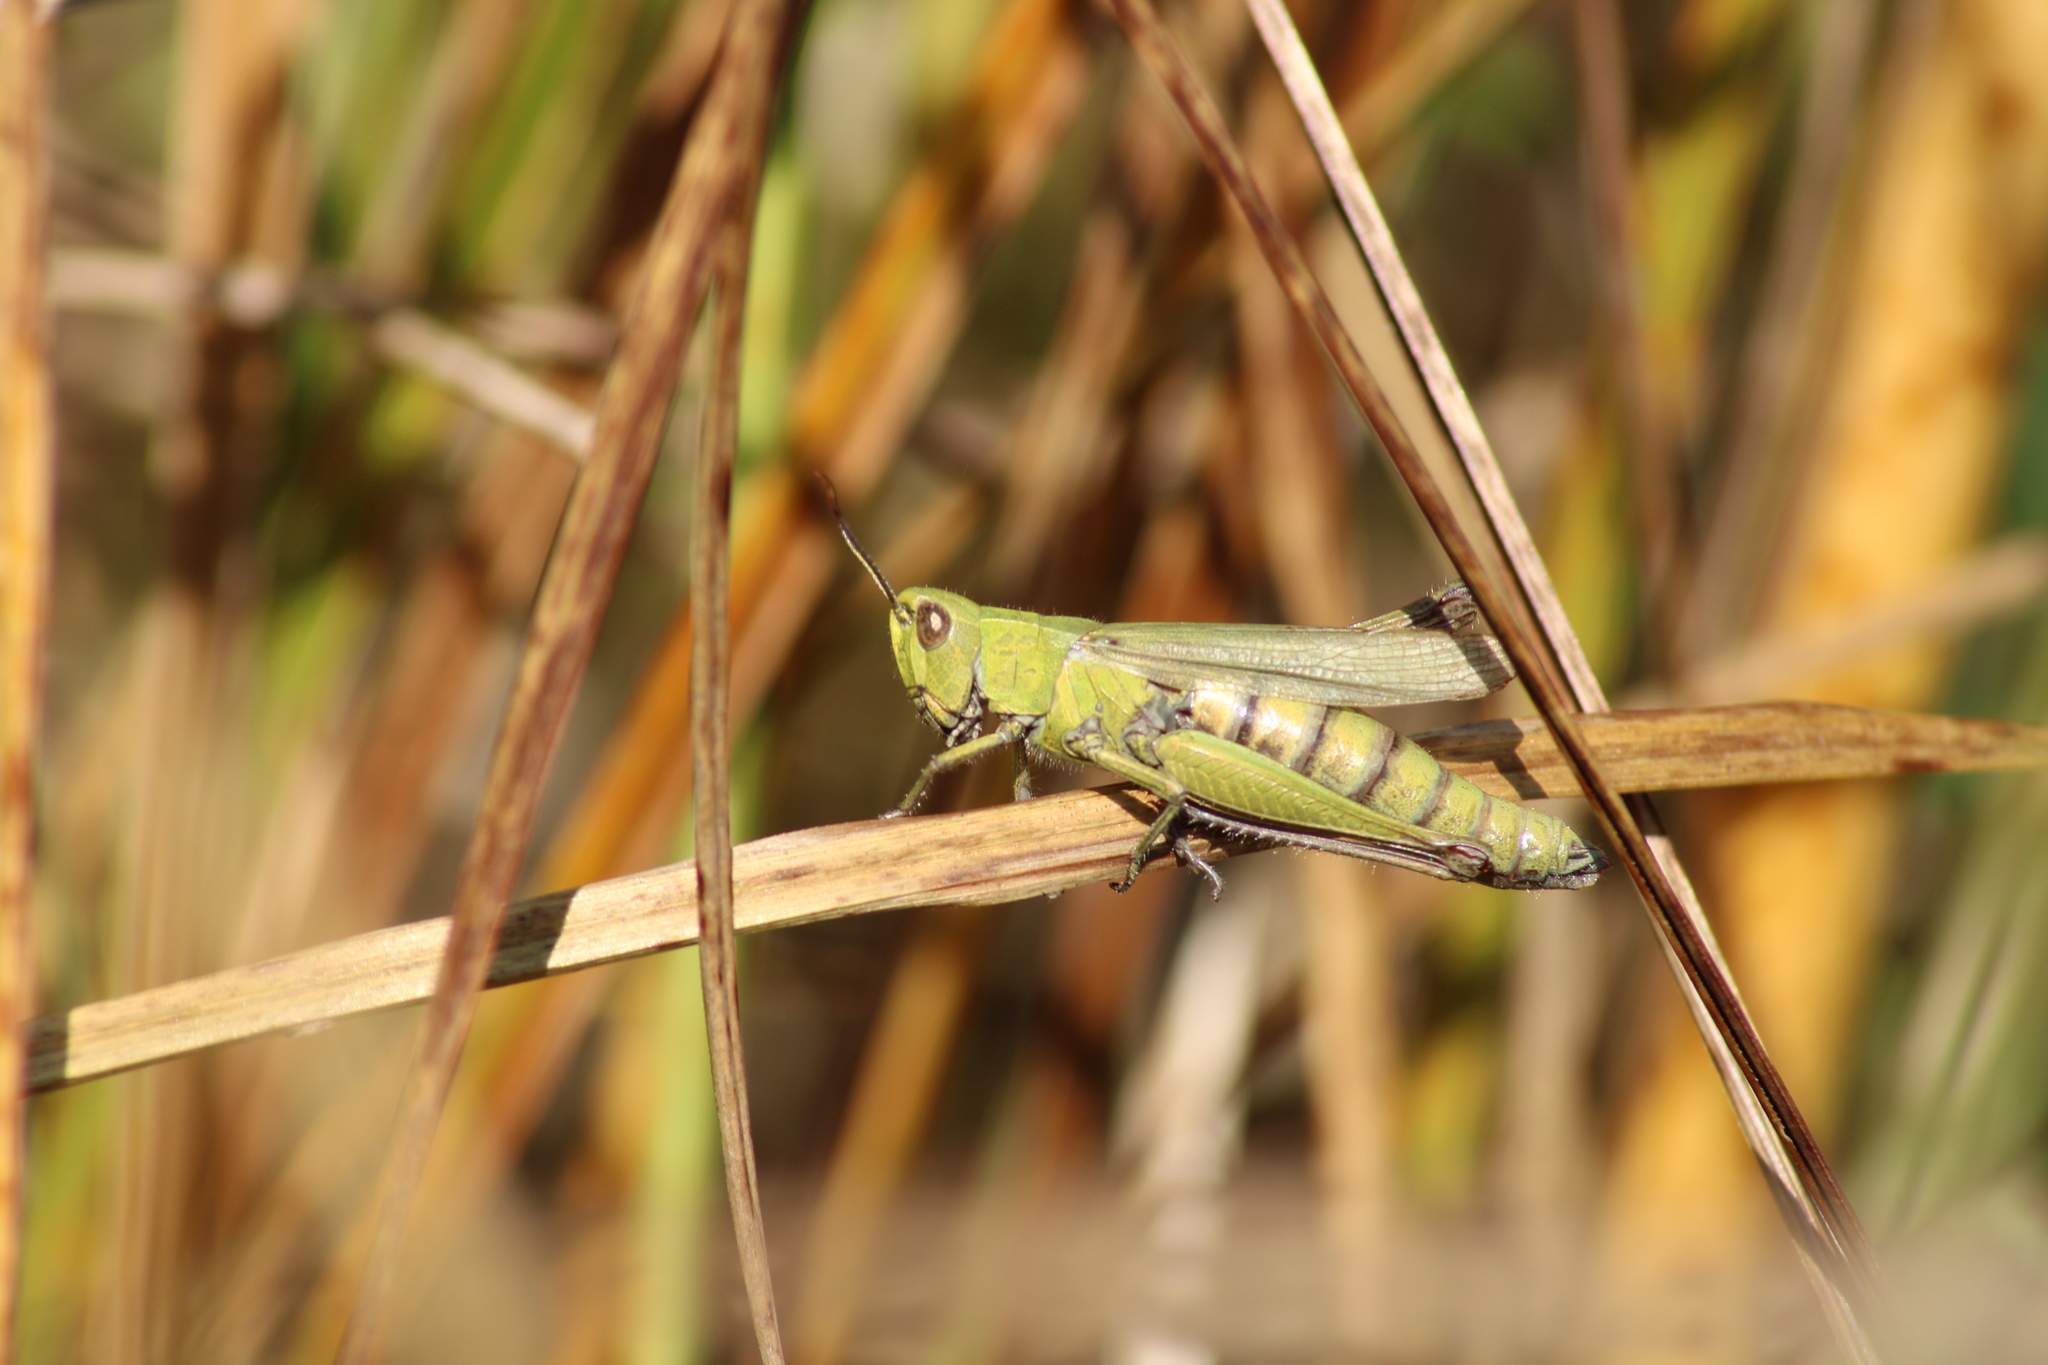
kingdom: Animalia
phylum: Arthropoda
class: Insecta
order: Orthoptera
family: Acrididae
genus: Chorthippus
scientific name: Chorthippus dorsatus
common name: Steppe grasshopper
